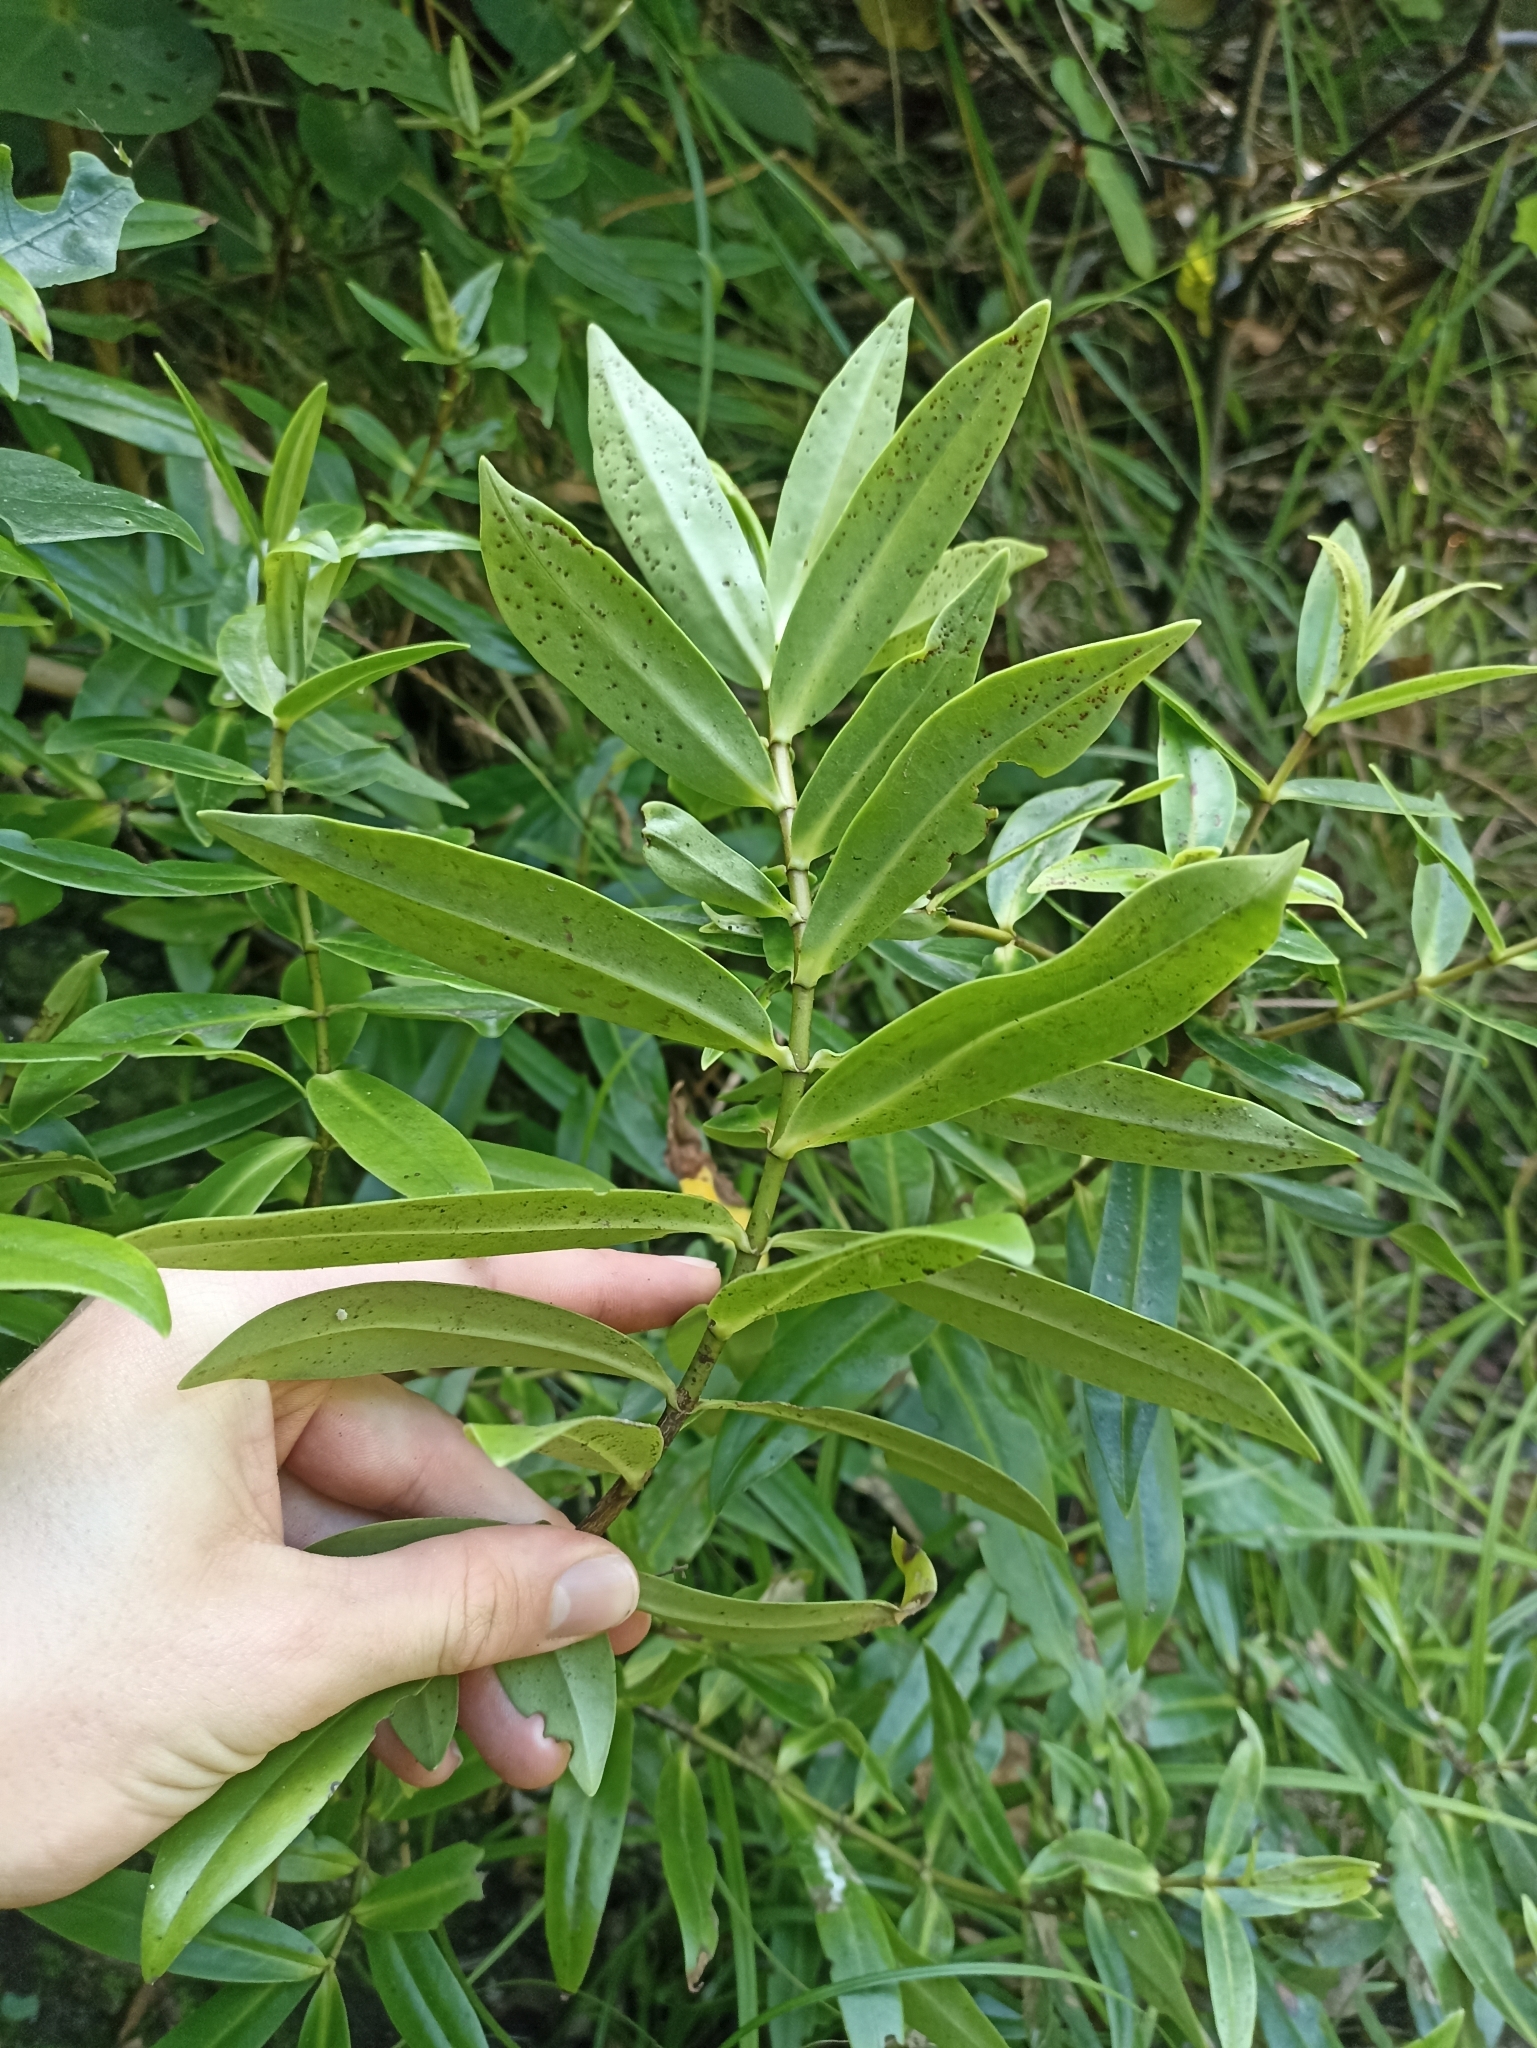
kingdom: Plantae
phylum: Tracheophyta
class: Magnoliopsida
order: Lamiales
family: Plantaginaceae
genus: Veronica
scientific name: Veronica macrocarpa
